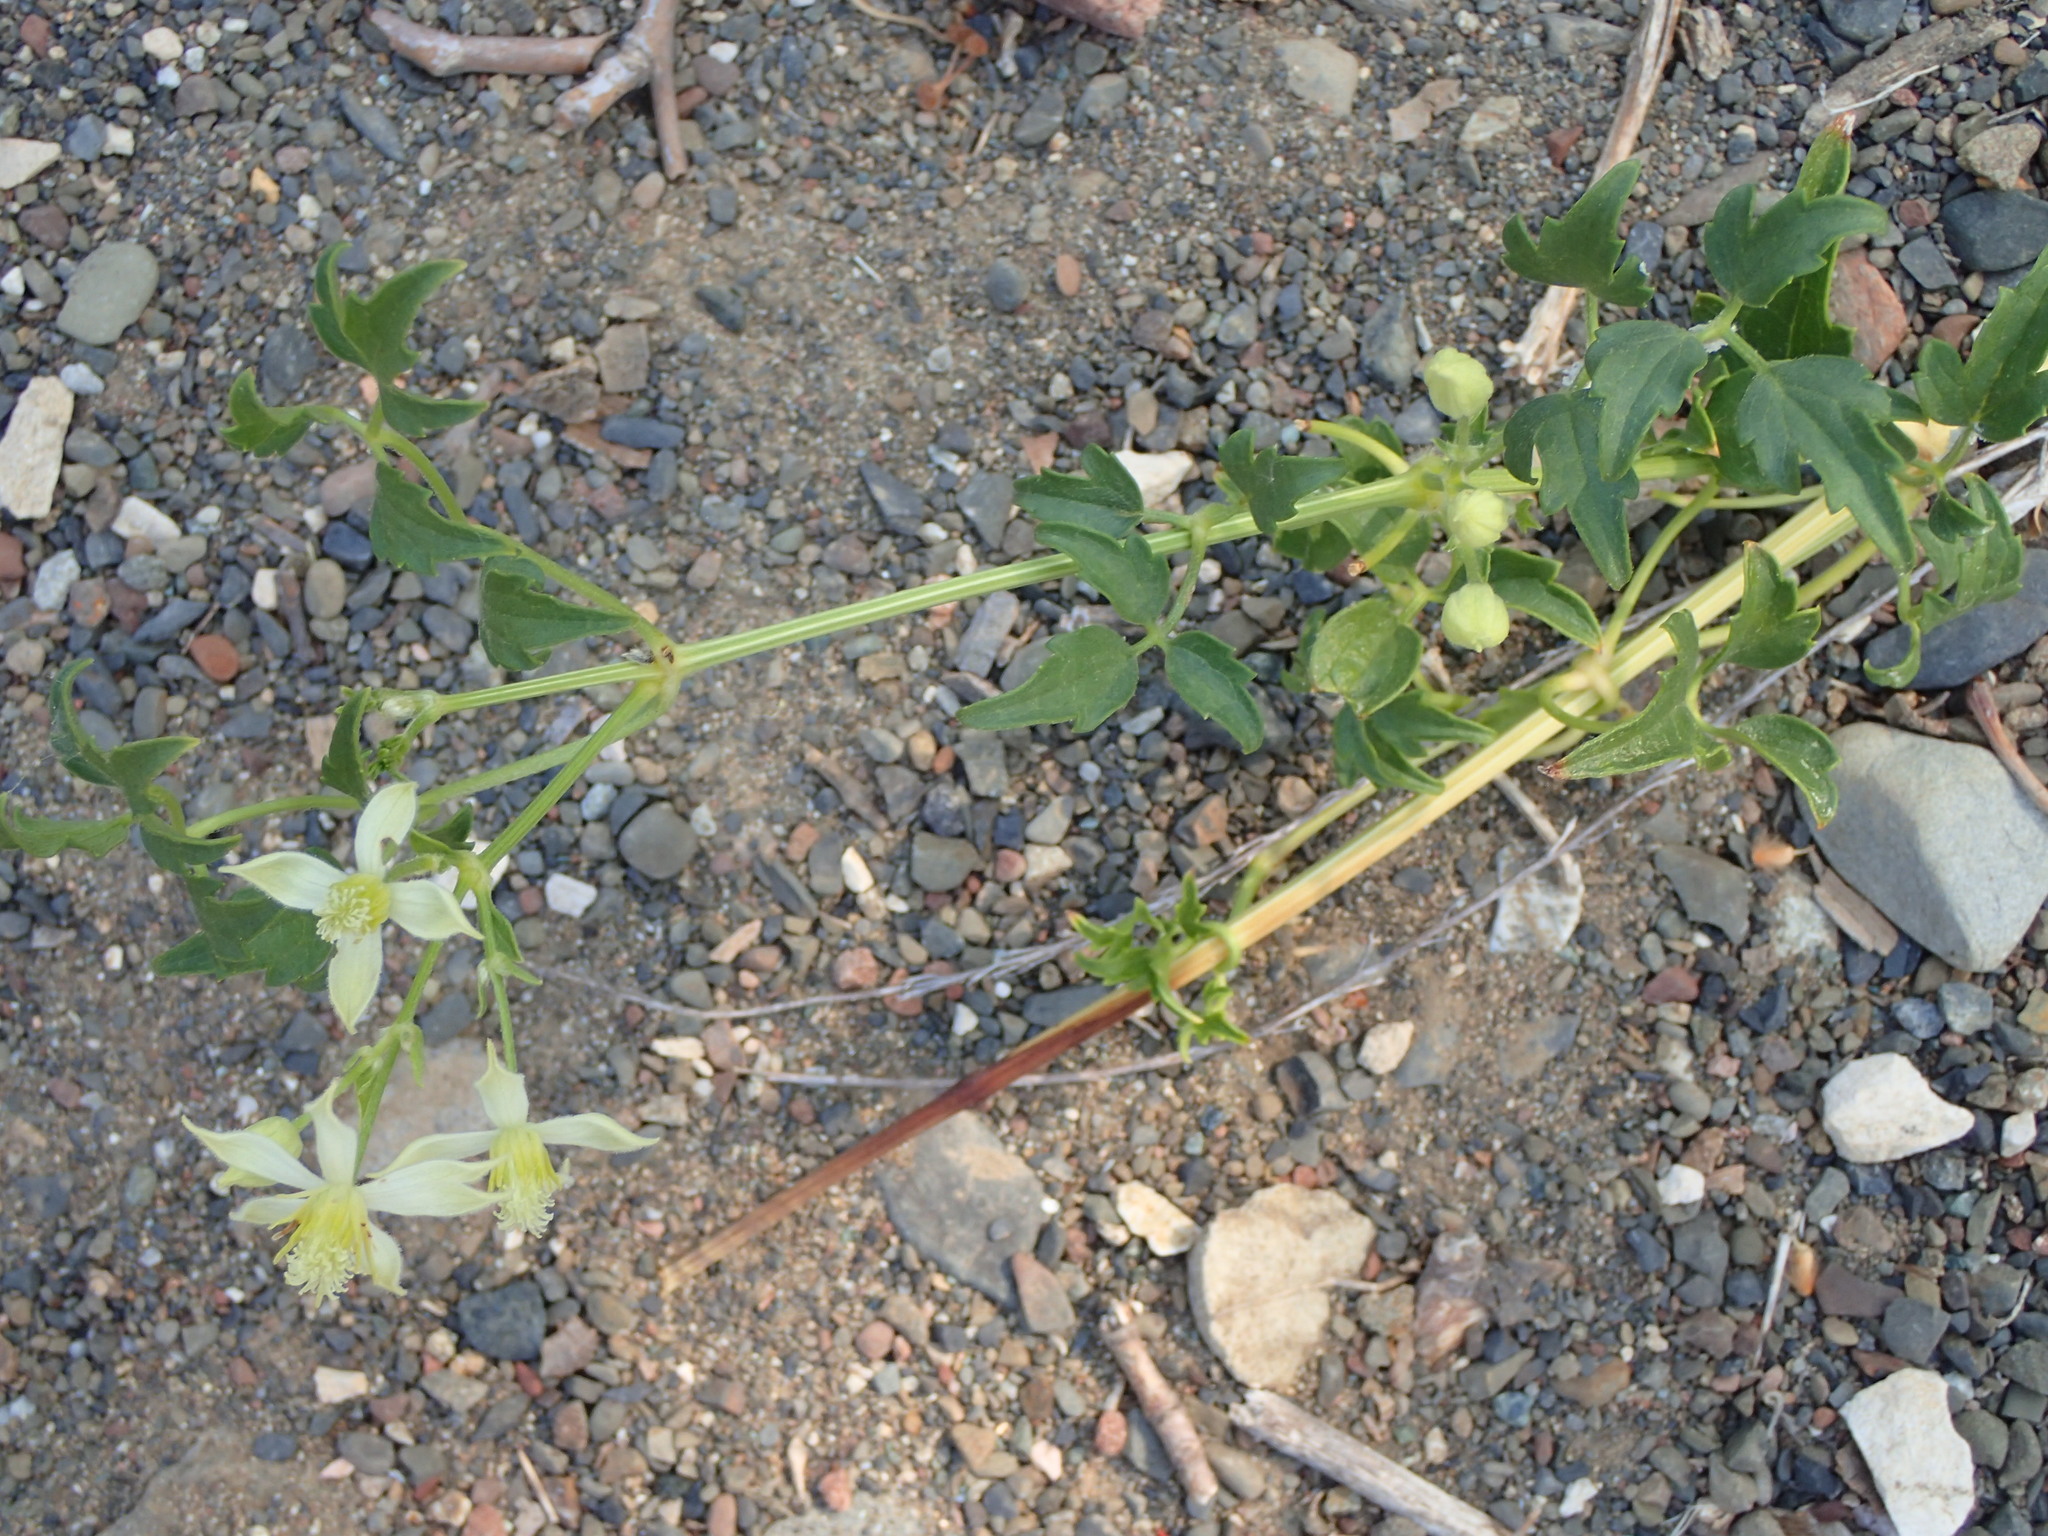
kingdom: Plantae
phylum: Tracheophyta
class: Magnoliopsida
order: Ranunculales
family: Ranunculaceae
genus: Clematis
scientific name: Clematis ligusticifolia
